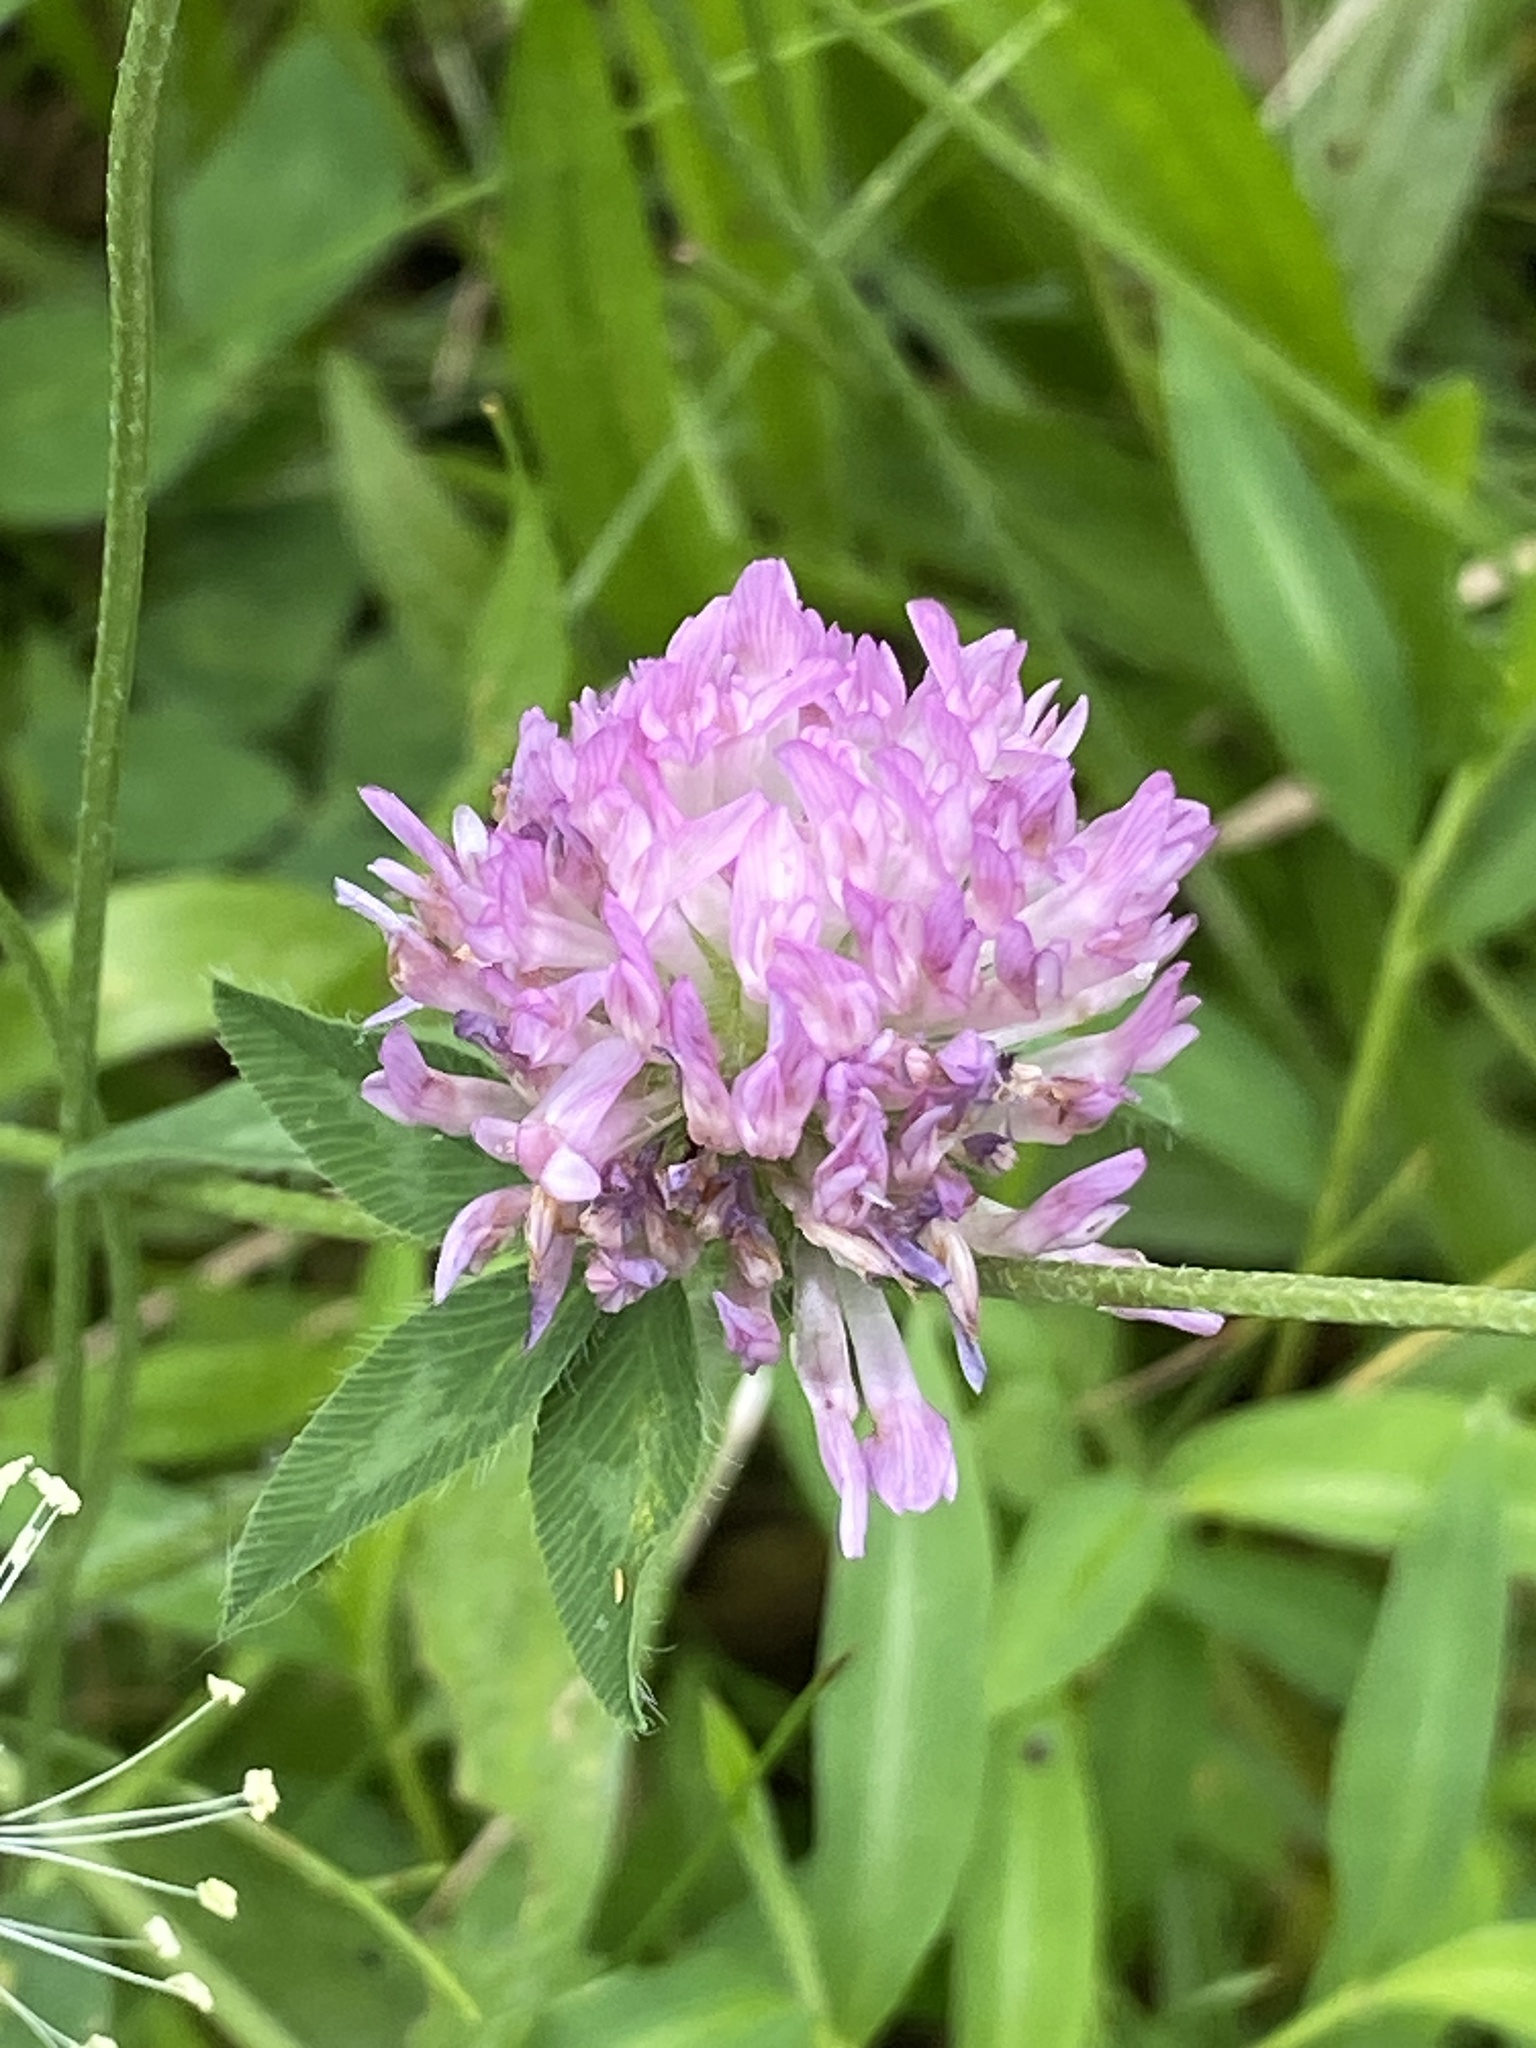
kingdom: Plantae
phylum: Tracheophyta
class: Magnoliopsida
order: Fabales
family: Fabaceae
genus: Trifolium
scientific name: Trifolium pratense
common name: Red clover
